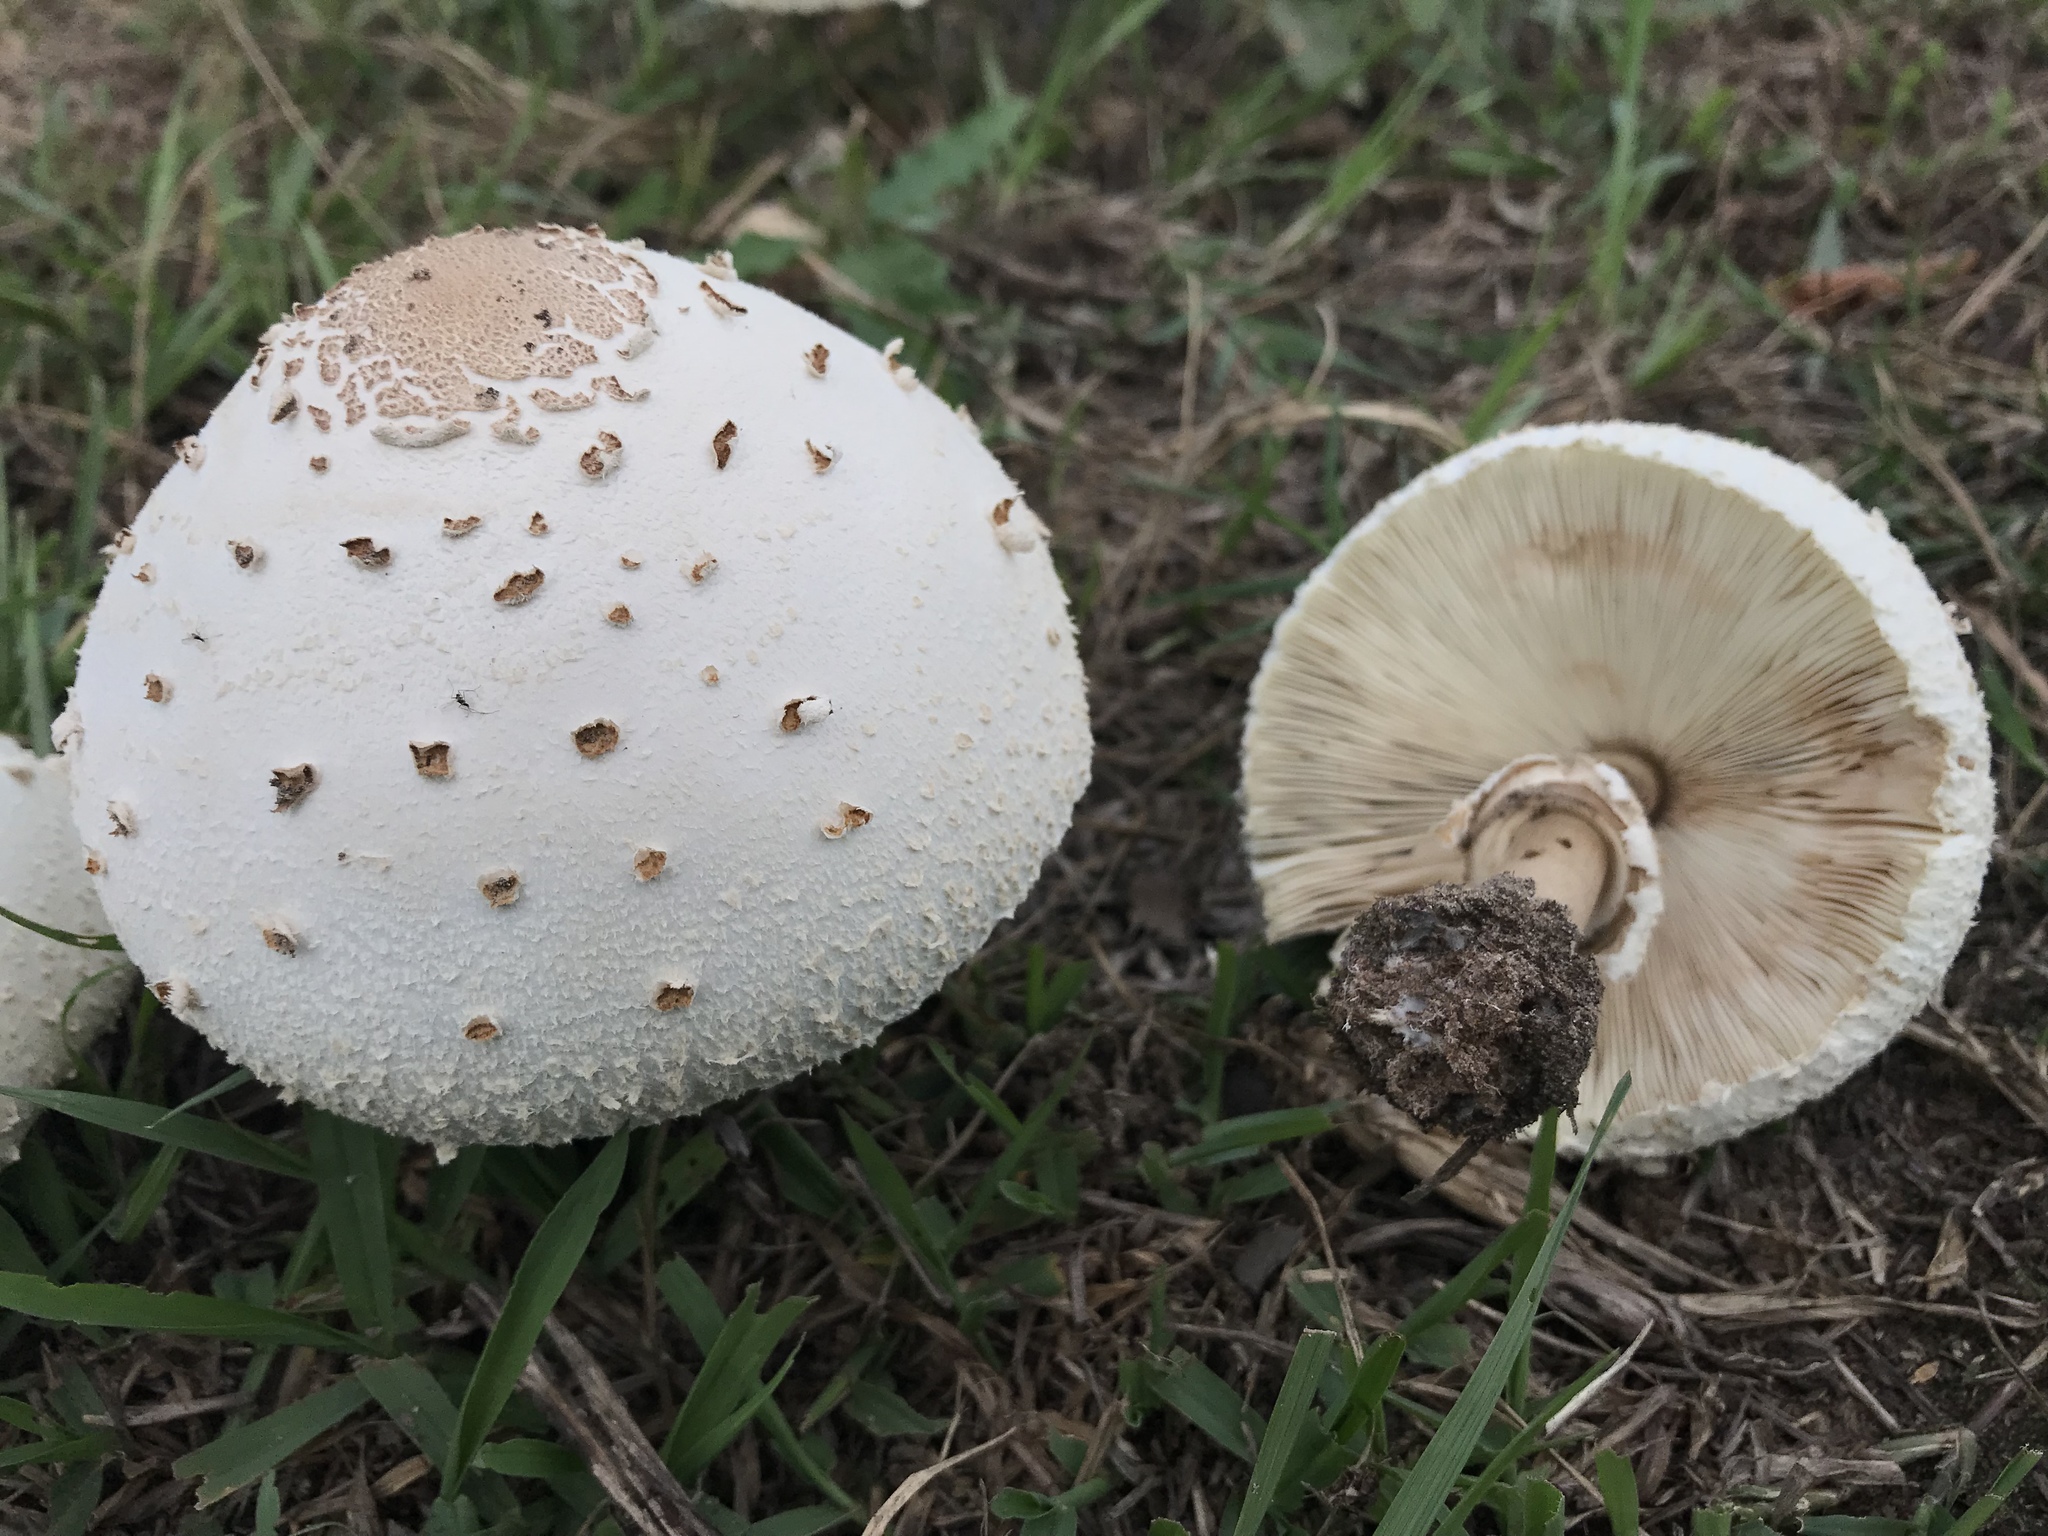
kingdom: Fungi
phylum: Basidiomycota
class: Agaricomycetes
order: Agaricales
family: Agaricaceae
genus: Chlorophyllum
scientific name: Chlorophyllum molybdites
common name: False parasol
